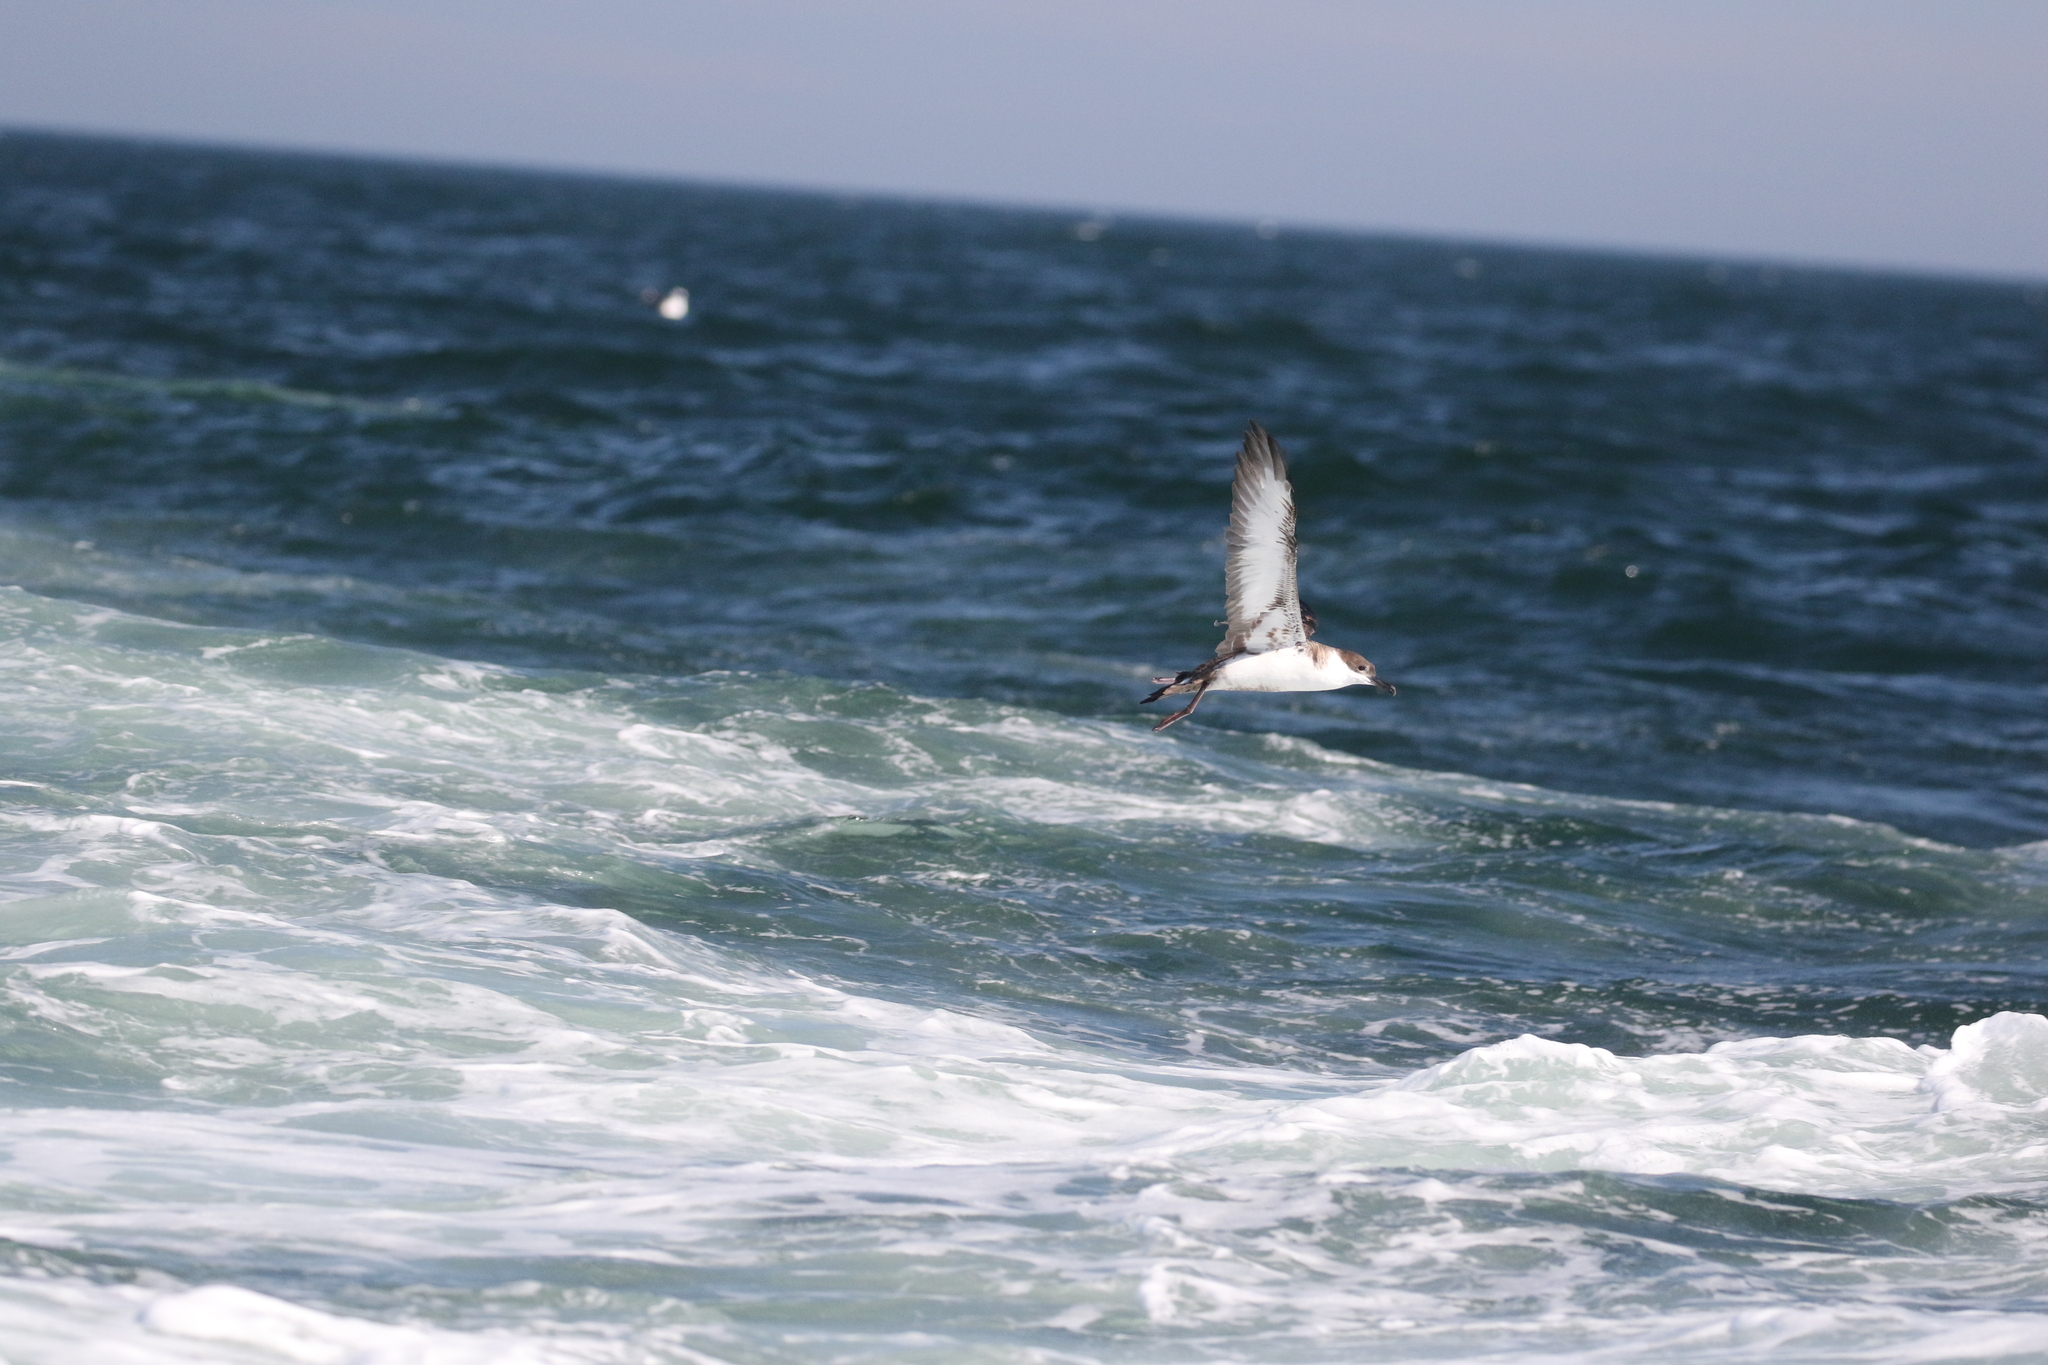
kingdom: Animalia
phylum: Chordata
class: Aves
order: Procellariiformes
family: Procellariidae
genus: Puffinus
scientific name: Puffinus gravis
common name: Great shearwater
